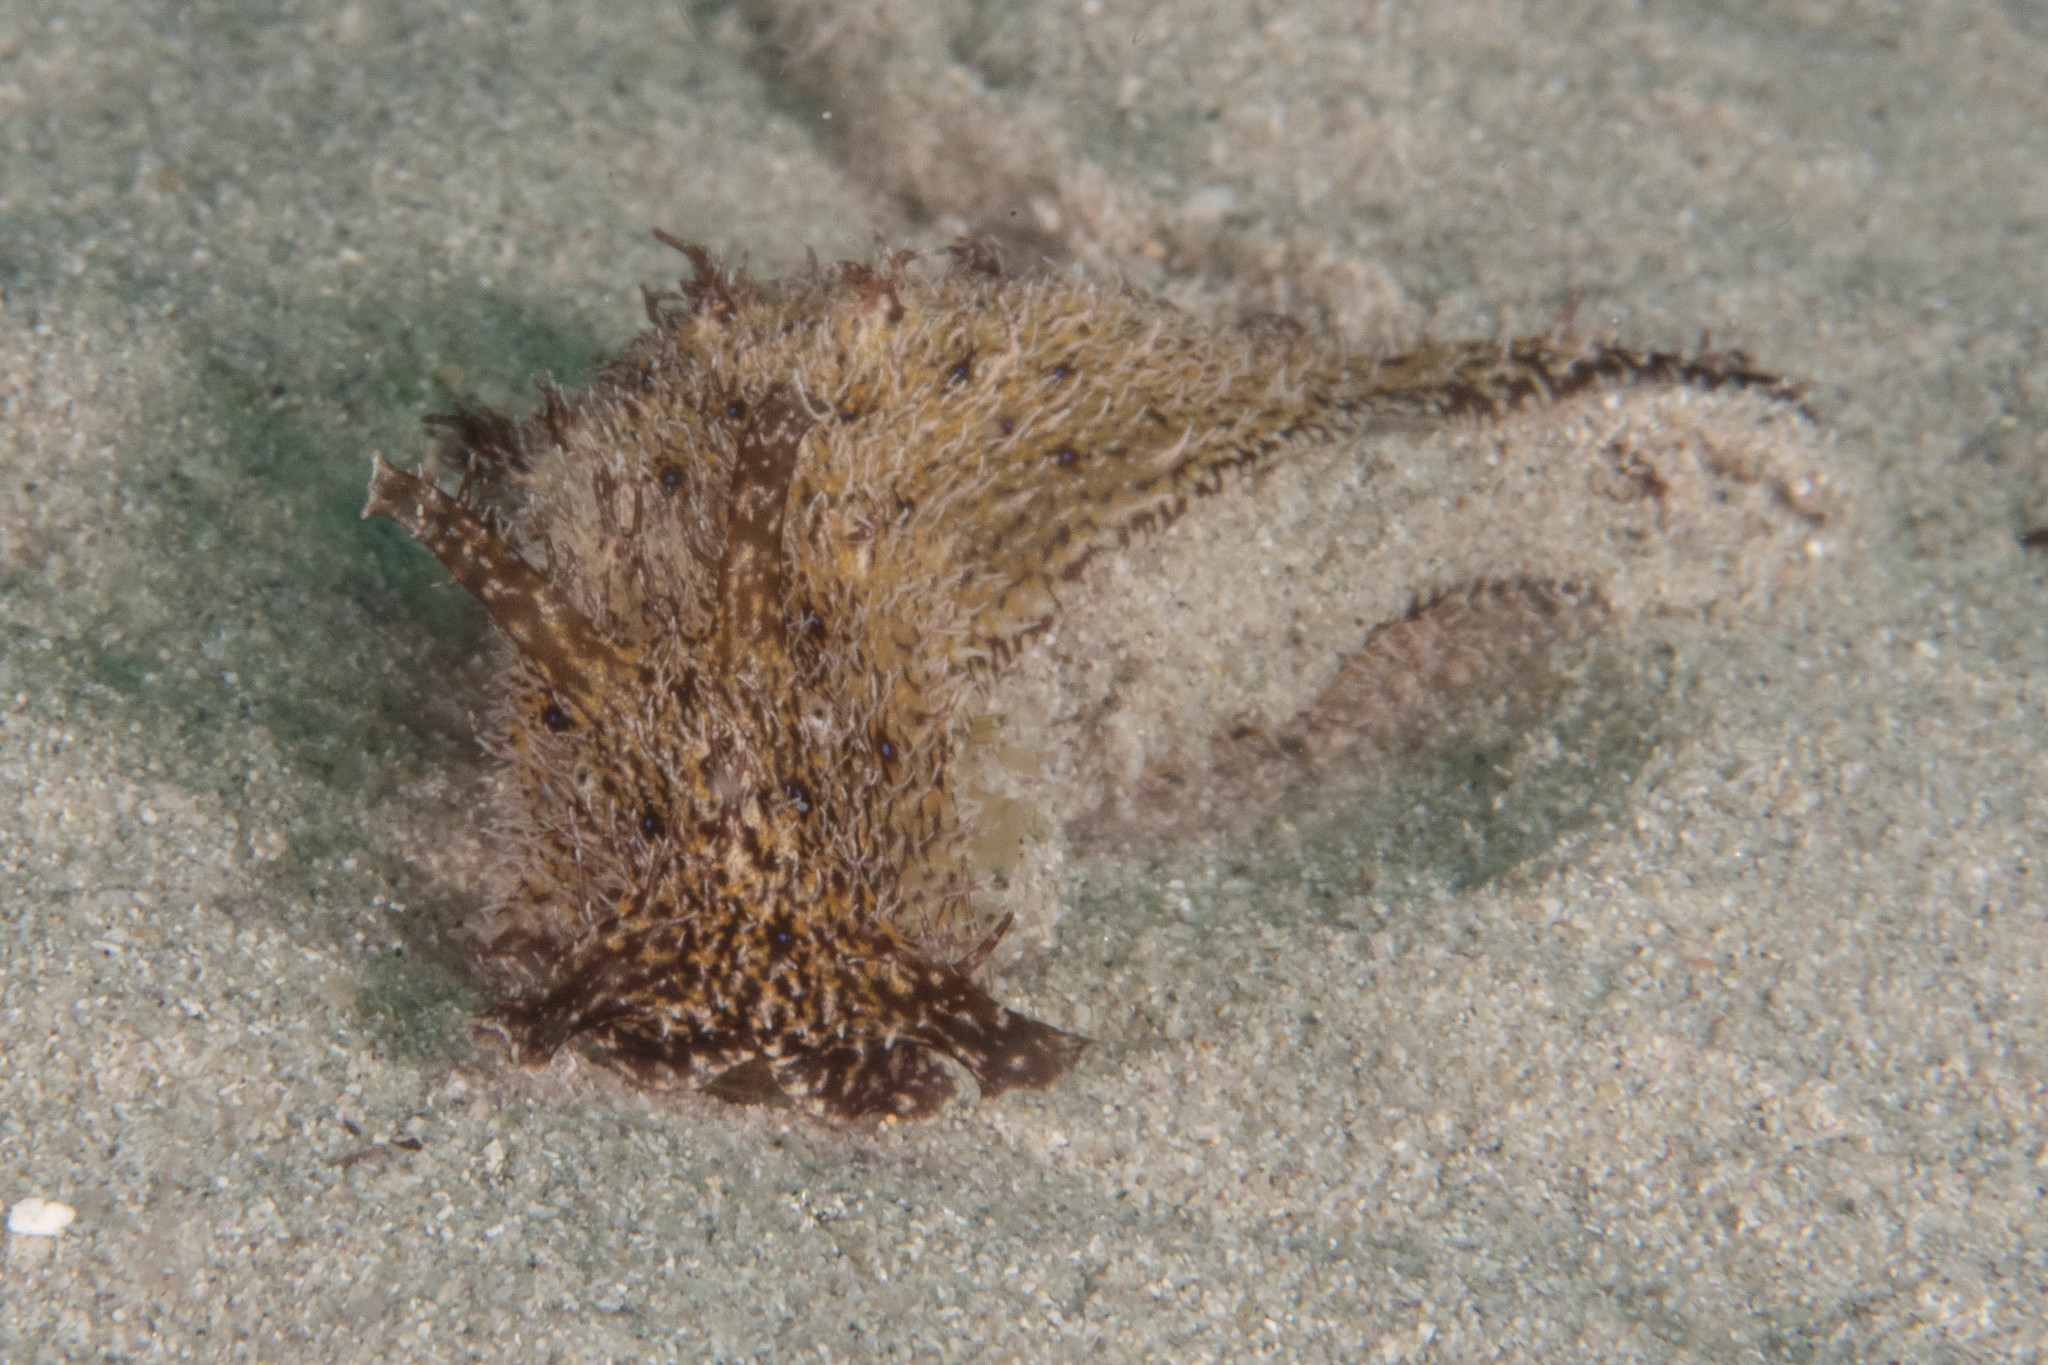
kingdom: Animalia
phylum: Mollusca
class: Gastropoda
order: Aplysiida
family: Aplysiidae
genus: Bursatella
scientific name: Bursatella hirsuta
